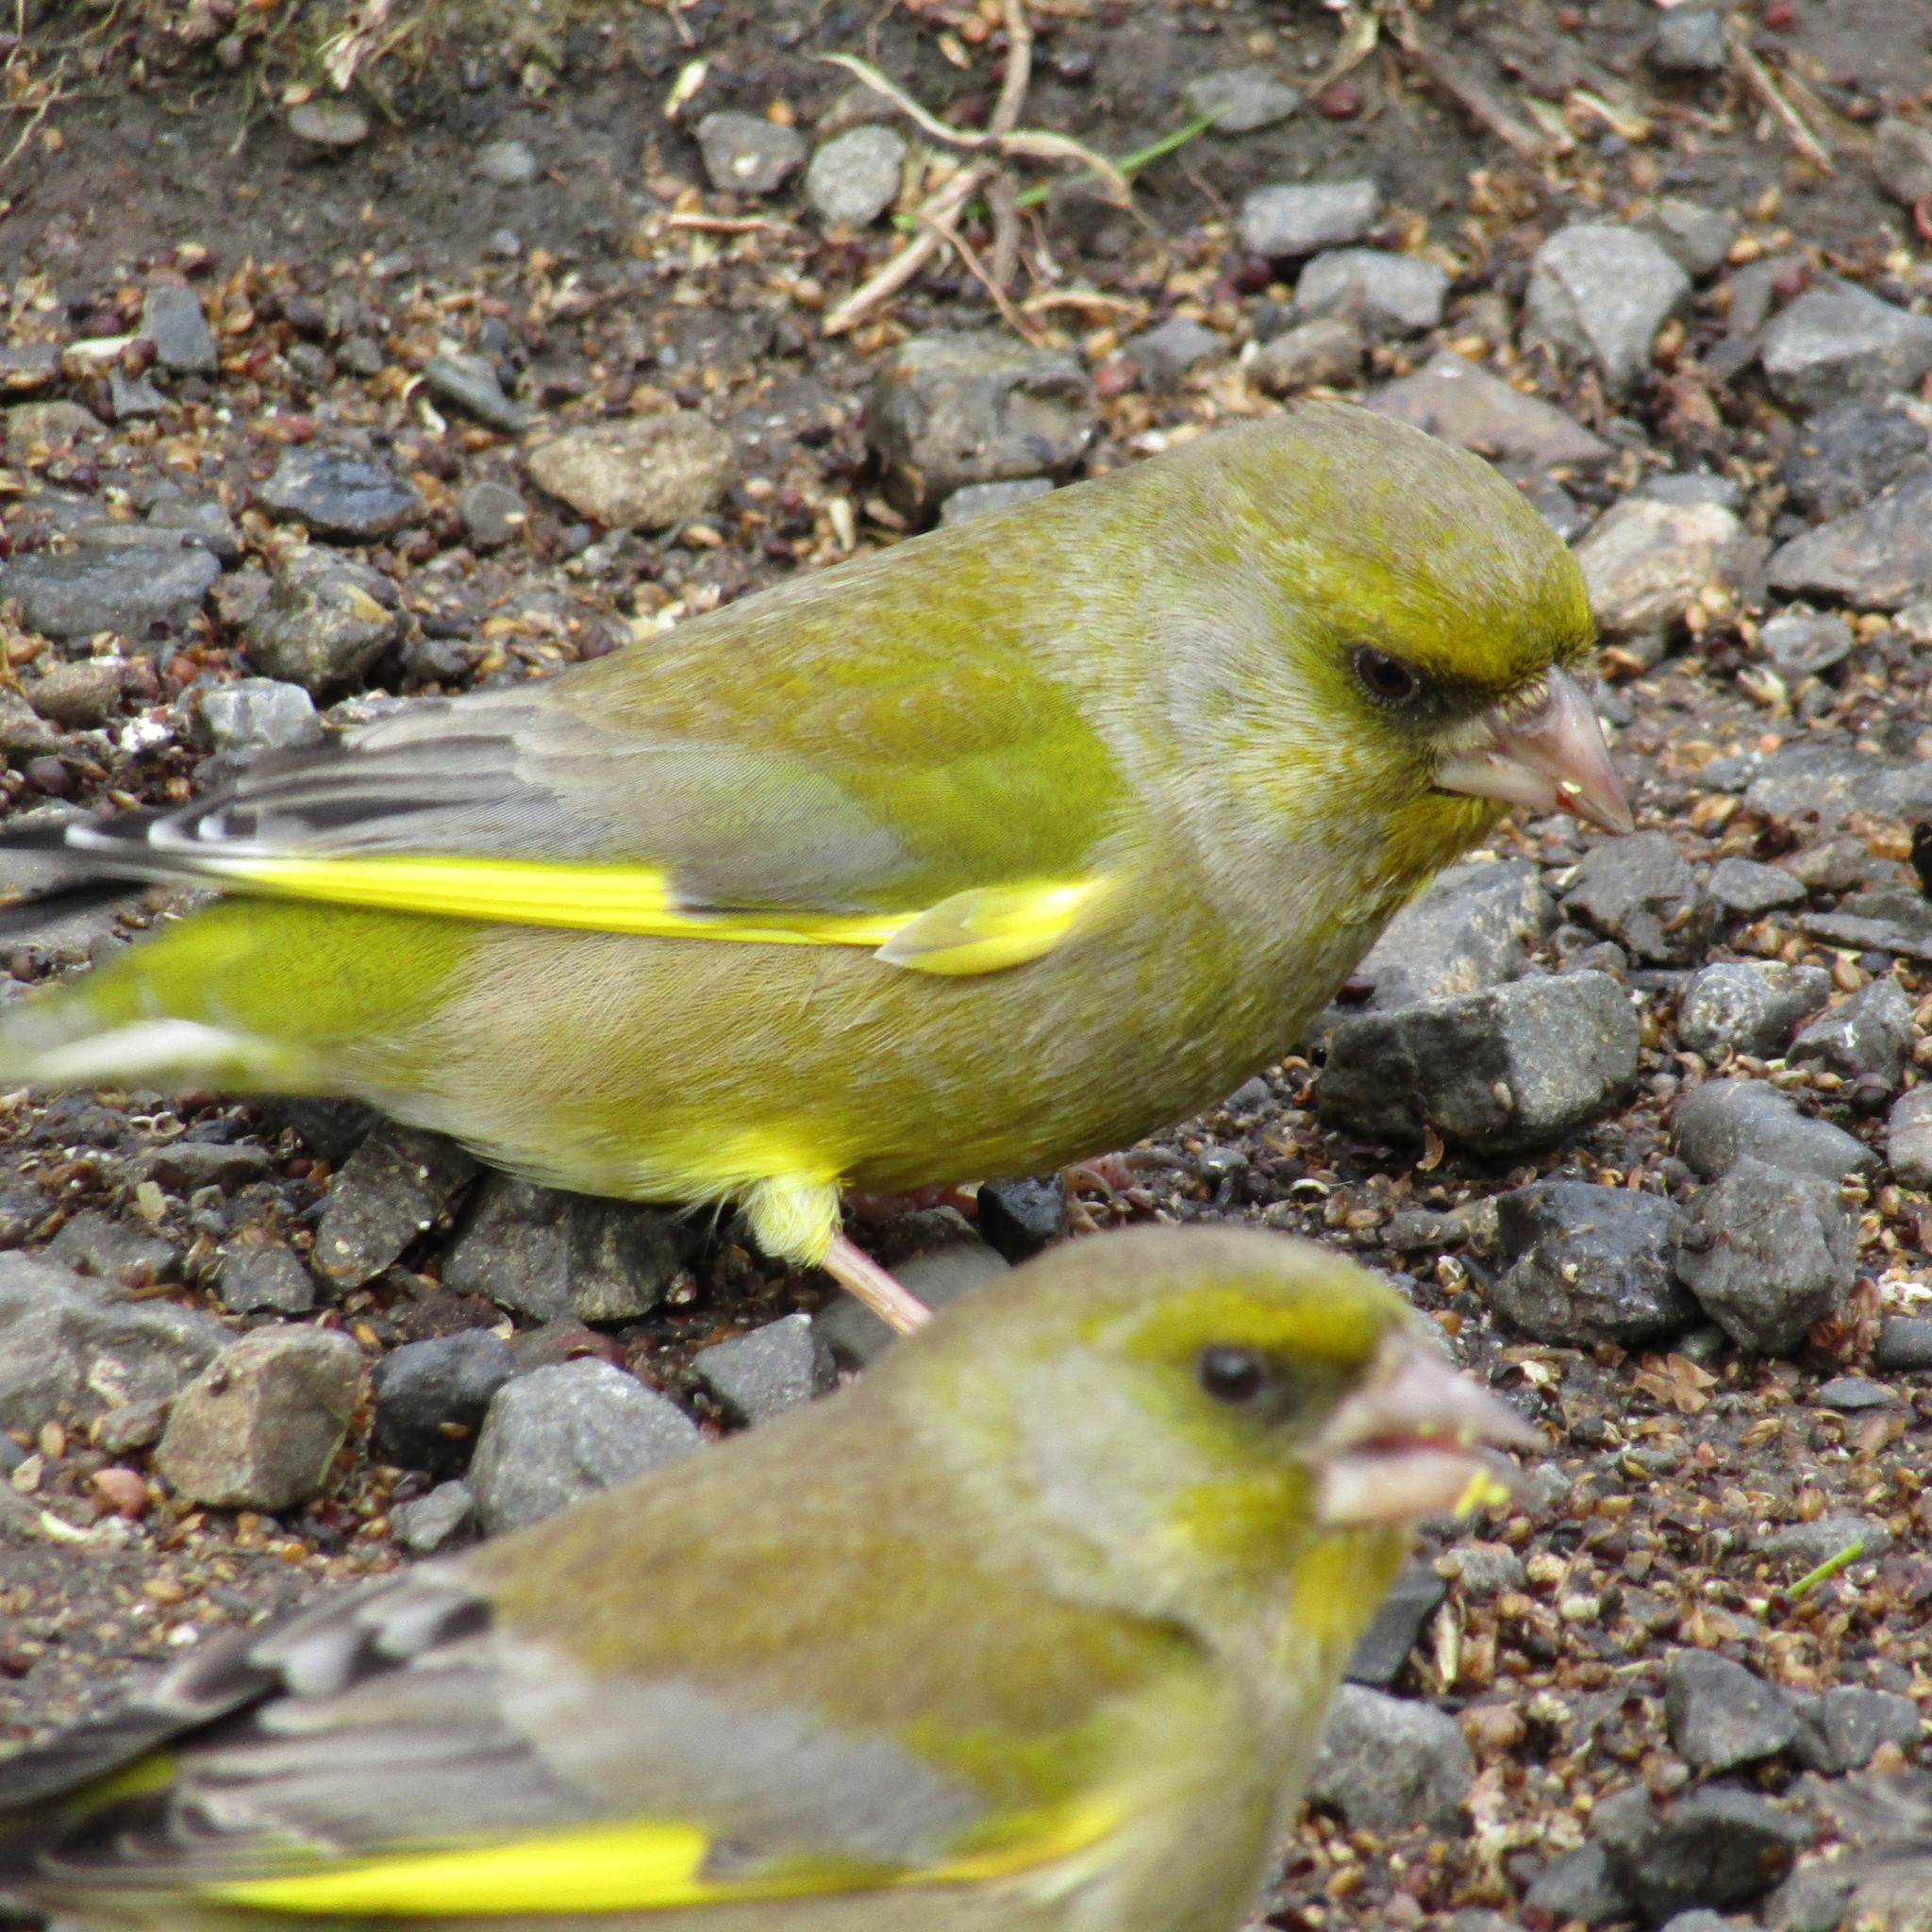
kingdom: Plantae
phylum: Tracheophyta
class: Liliopsida
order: Poales
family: Poaceae
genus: Chloris
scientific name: Chloris chloris
